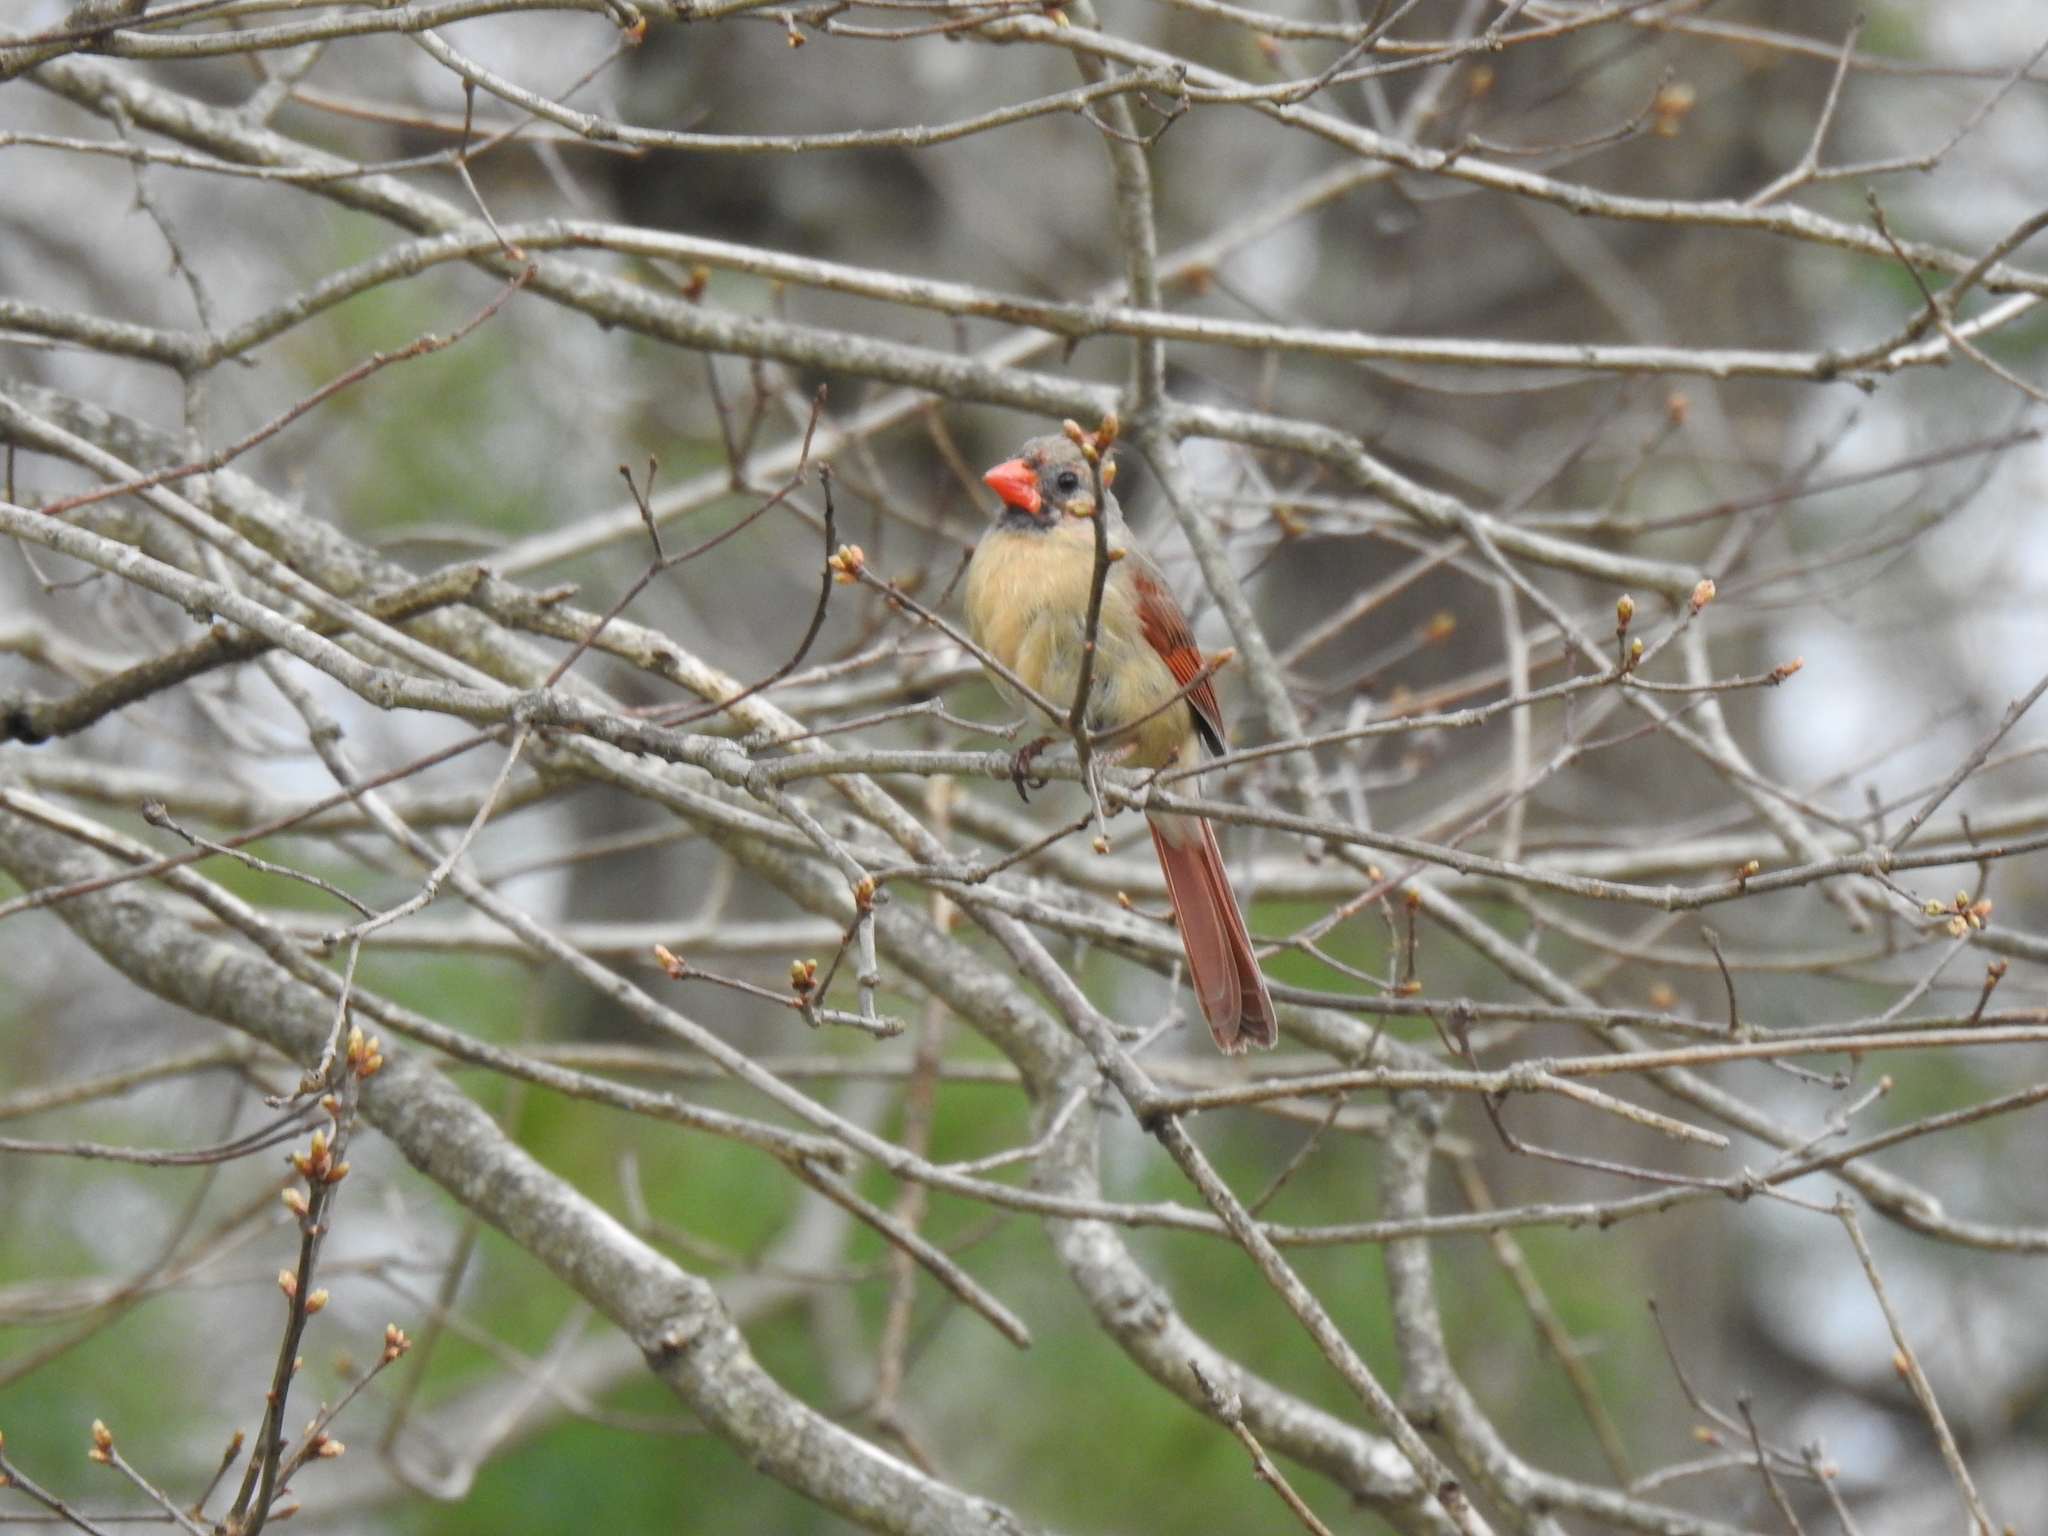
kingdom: Animalia
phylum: Chordata
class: Aves
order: Passeriformes
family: Cardinalidae
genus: Cardinalis
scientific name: Cardinalis cardinalis
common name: Northern cardinal
